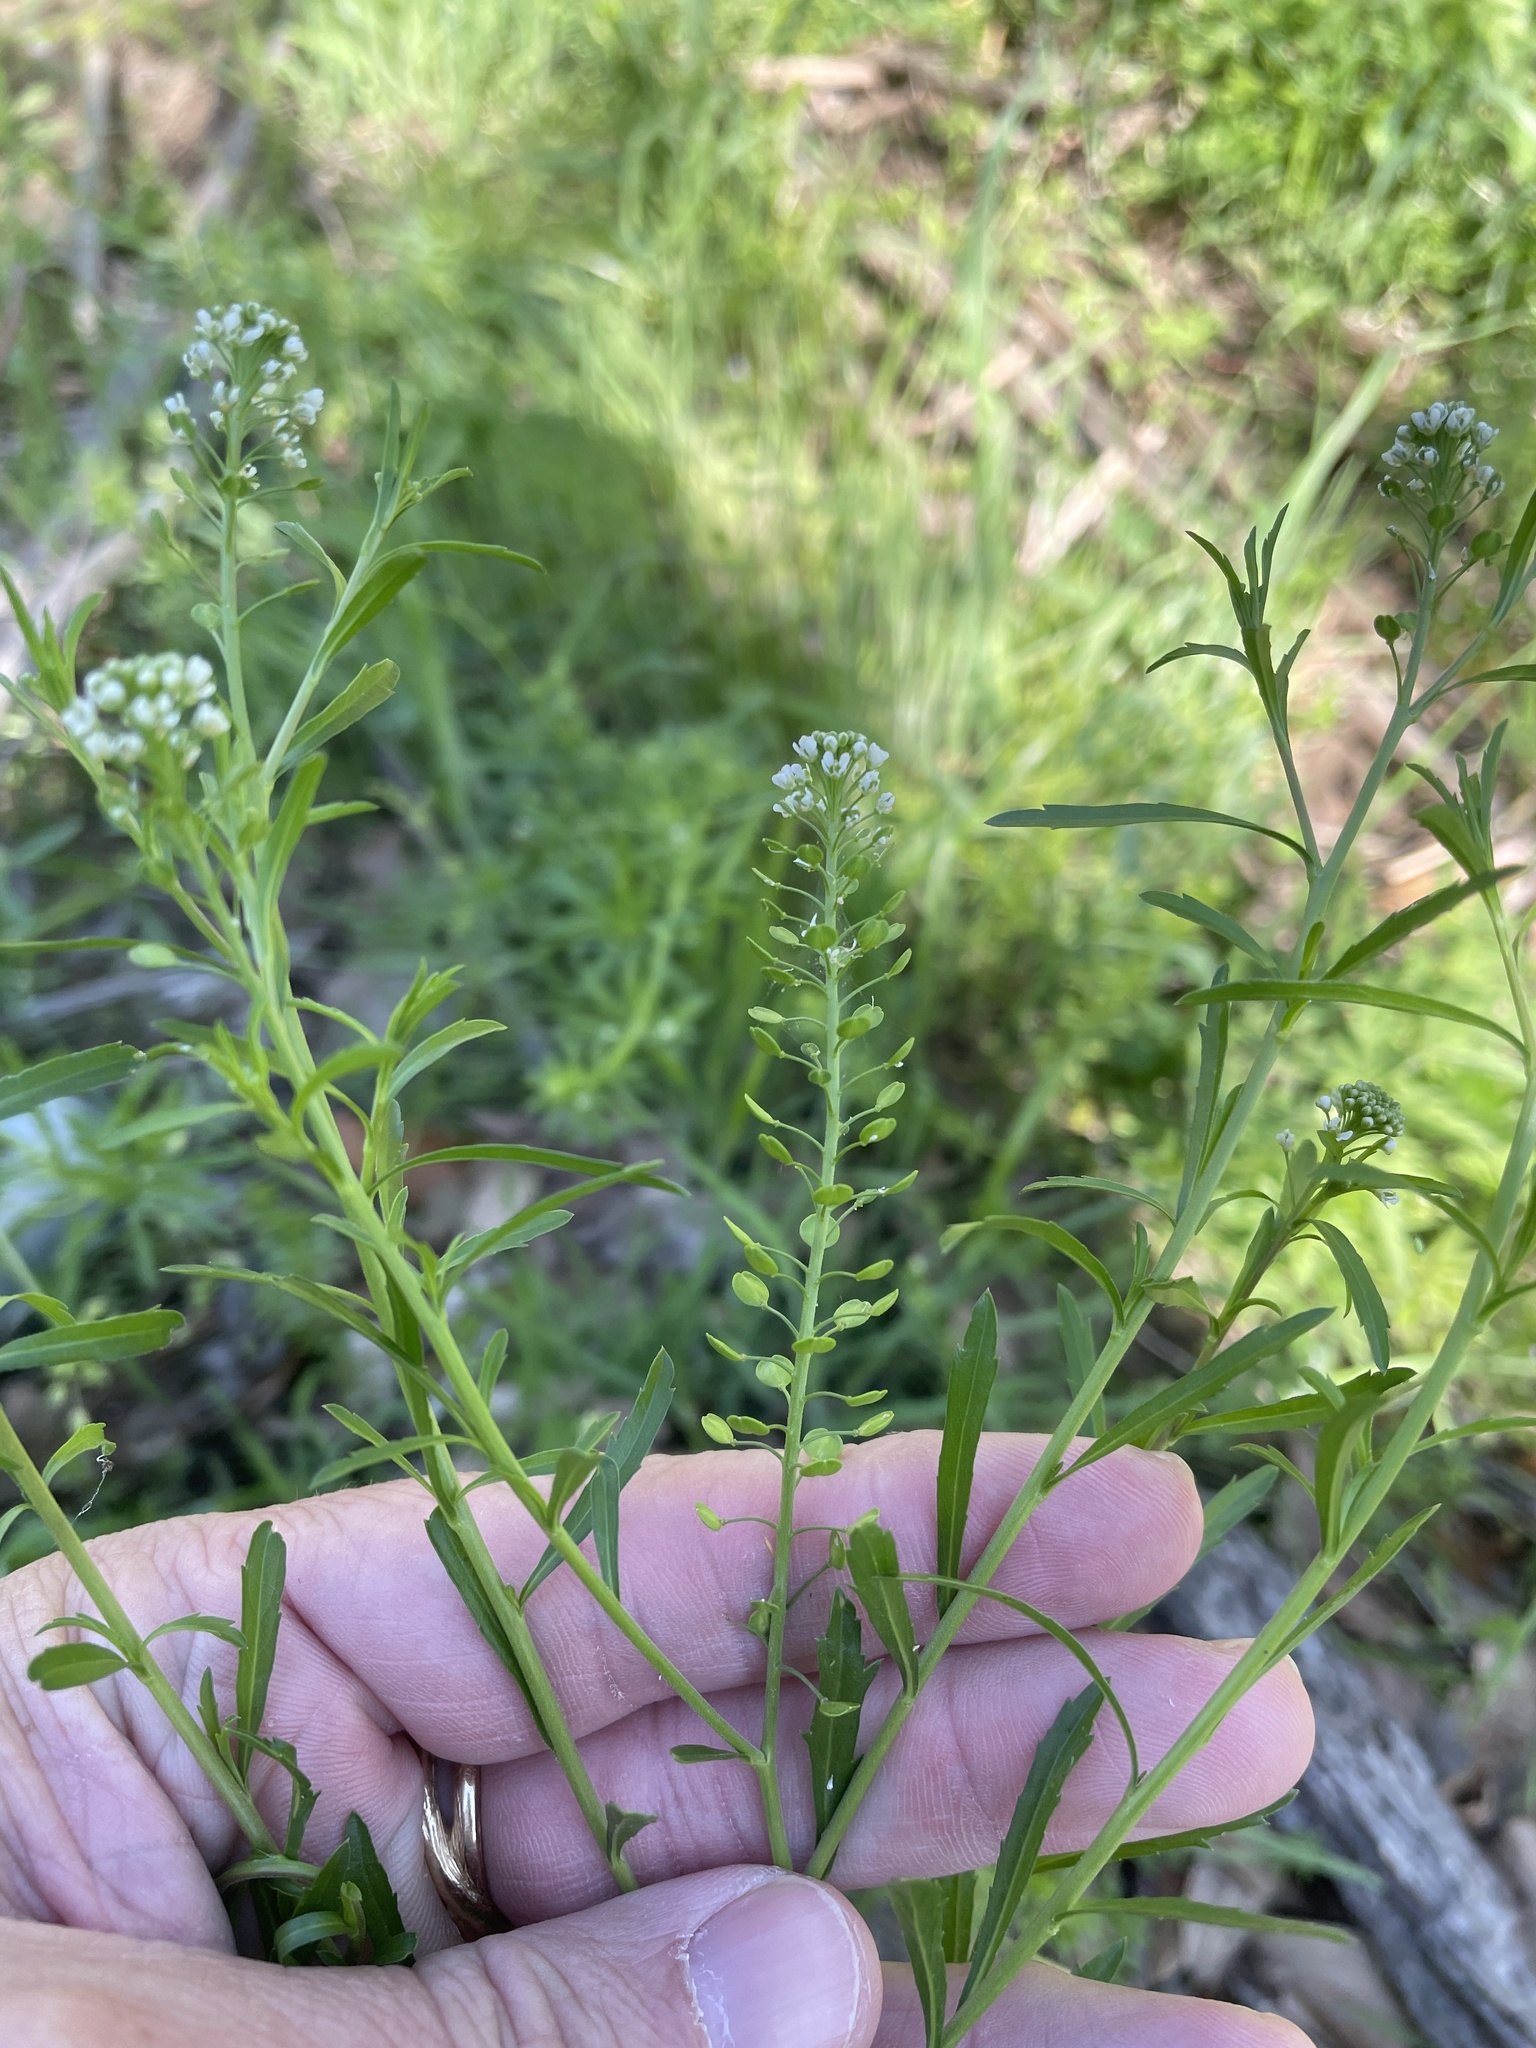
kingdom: Plantae
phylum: Tracheophyta
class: Magnoliopsida
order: Brassicales
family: Brassicaceae
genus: Lepidium
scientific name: Lepidium virginicum
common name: Least pepperwort
